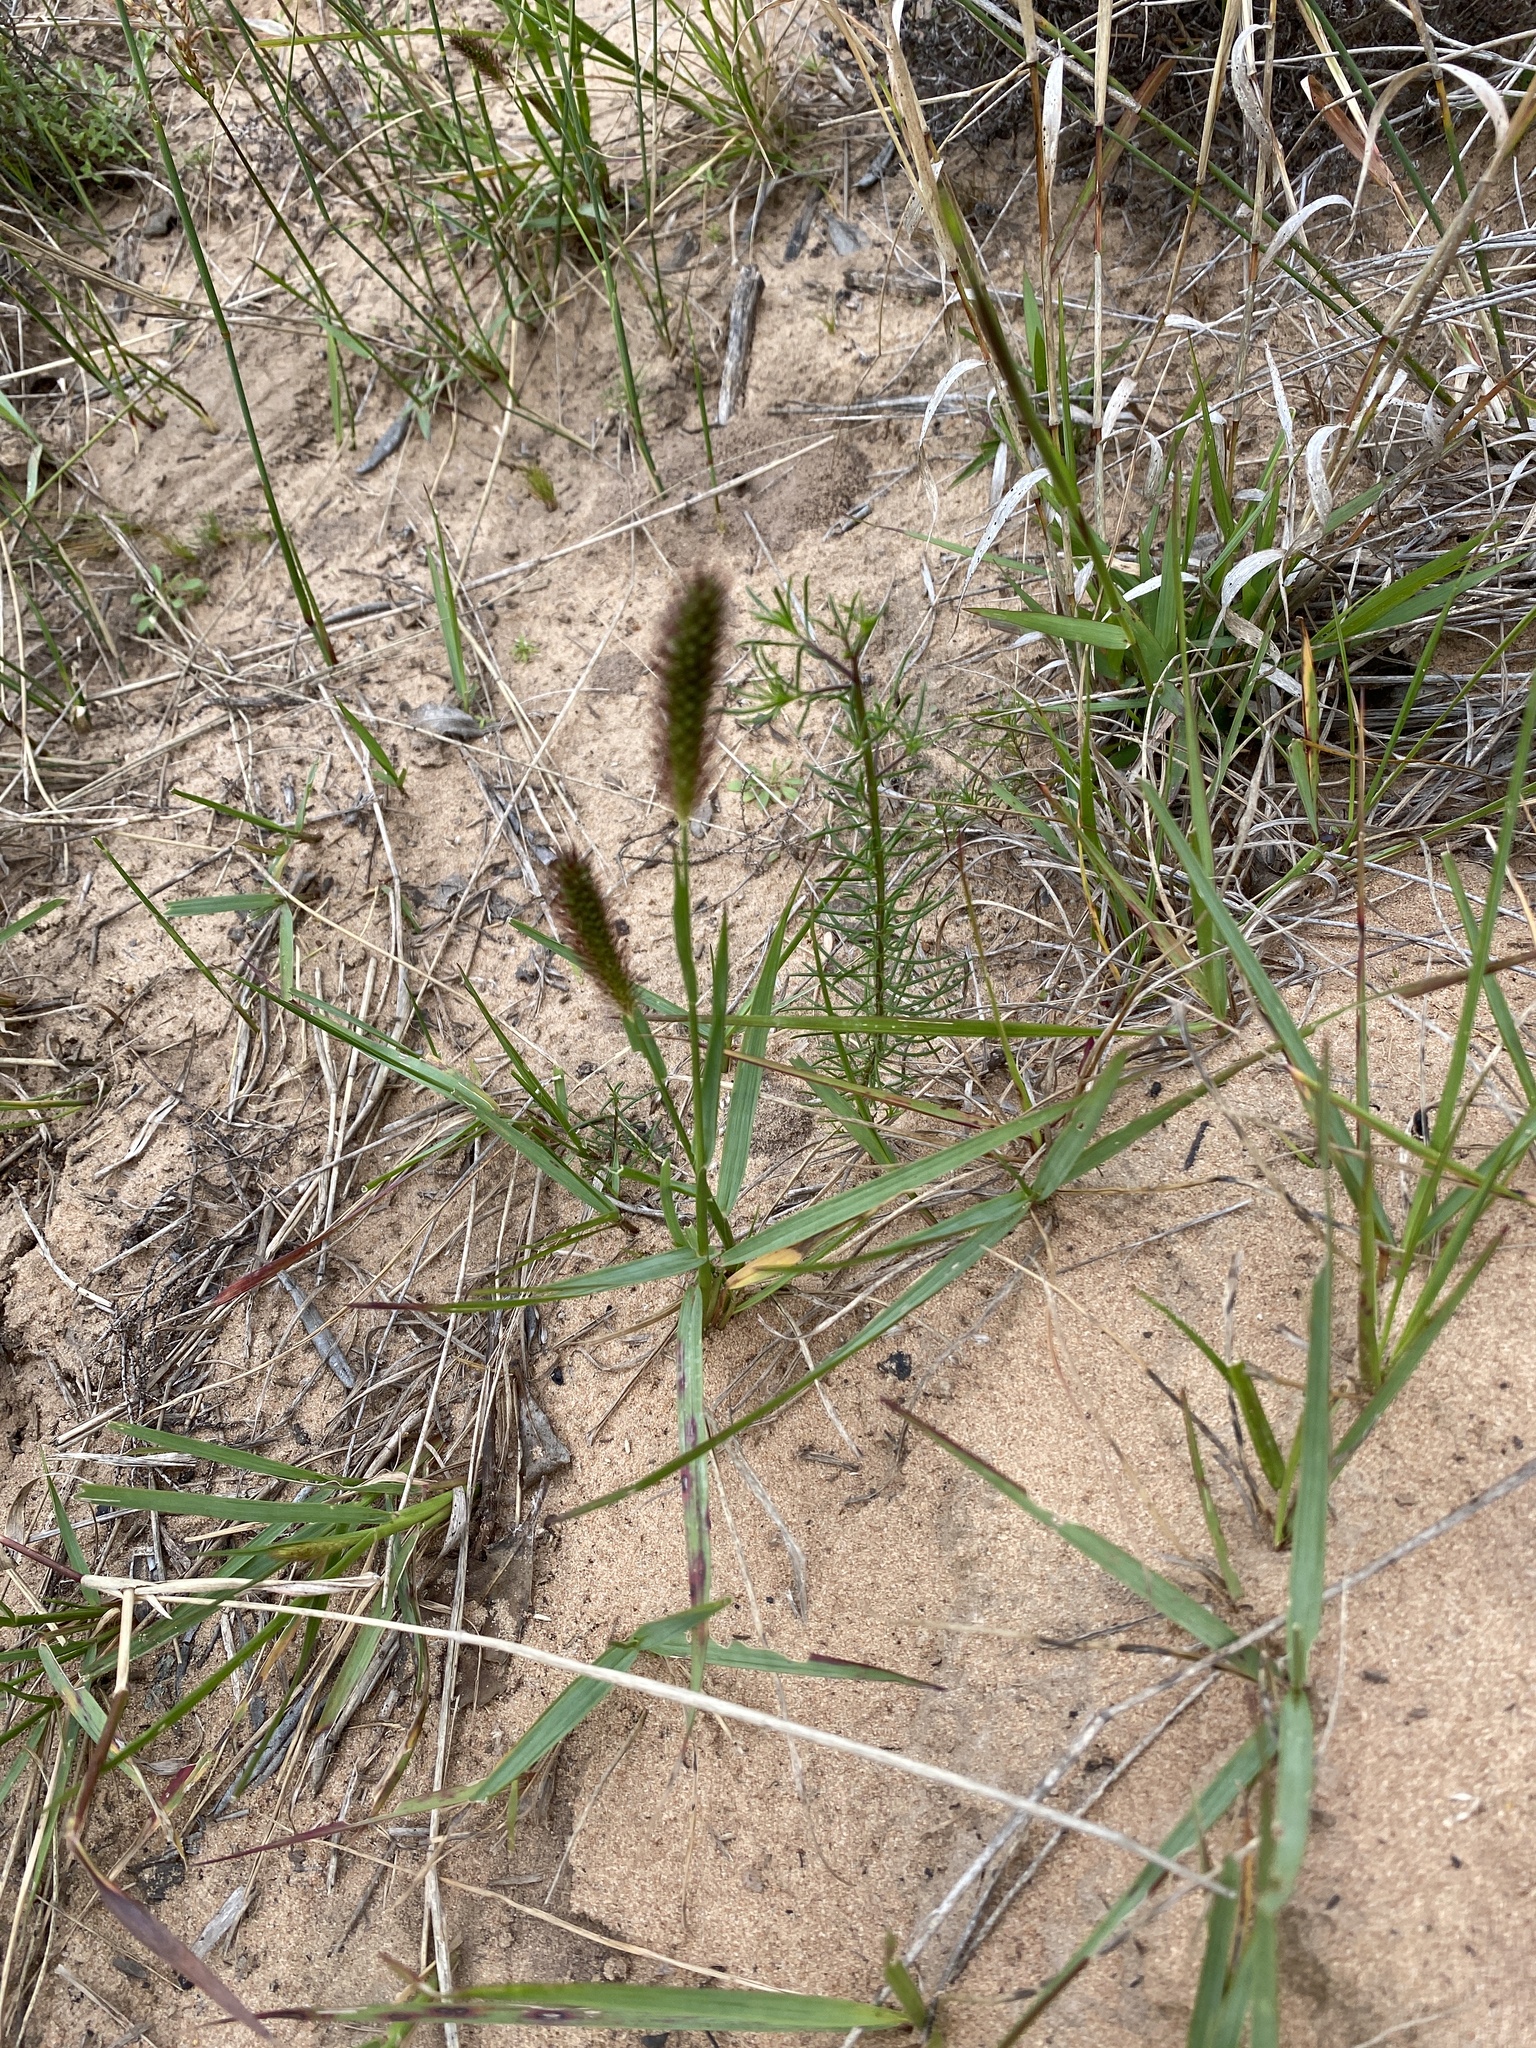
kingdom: Plantae
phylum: Tracheophyta
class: Liliopsida
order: Poales
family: Poaceae
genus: Cenchrus
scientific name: Cenchrus ciliaris
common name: Buffelgrass
